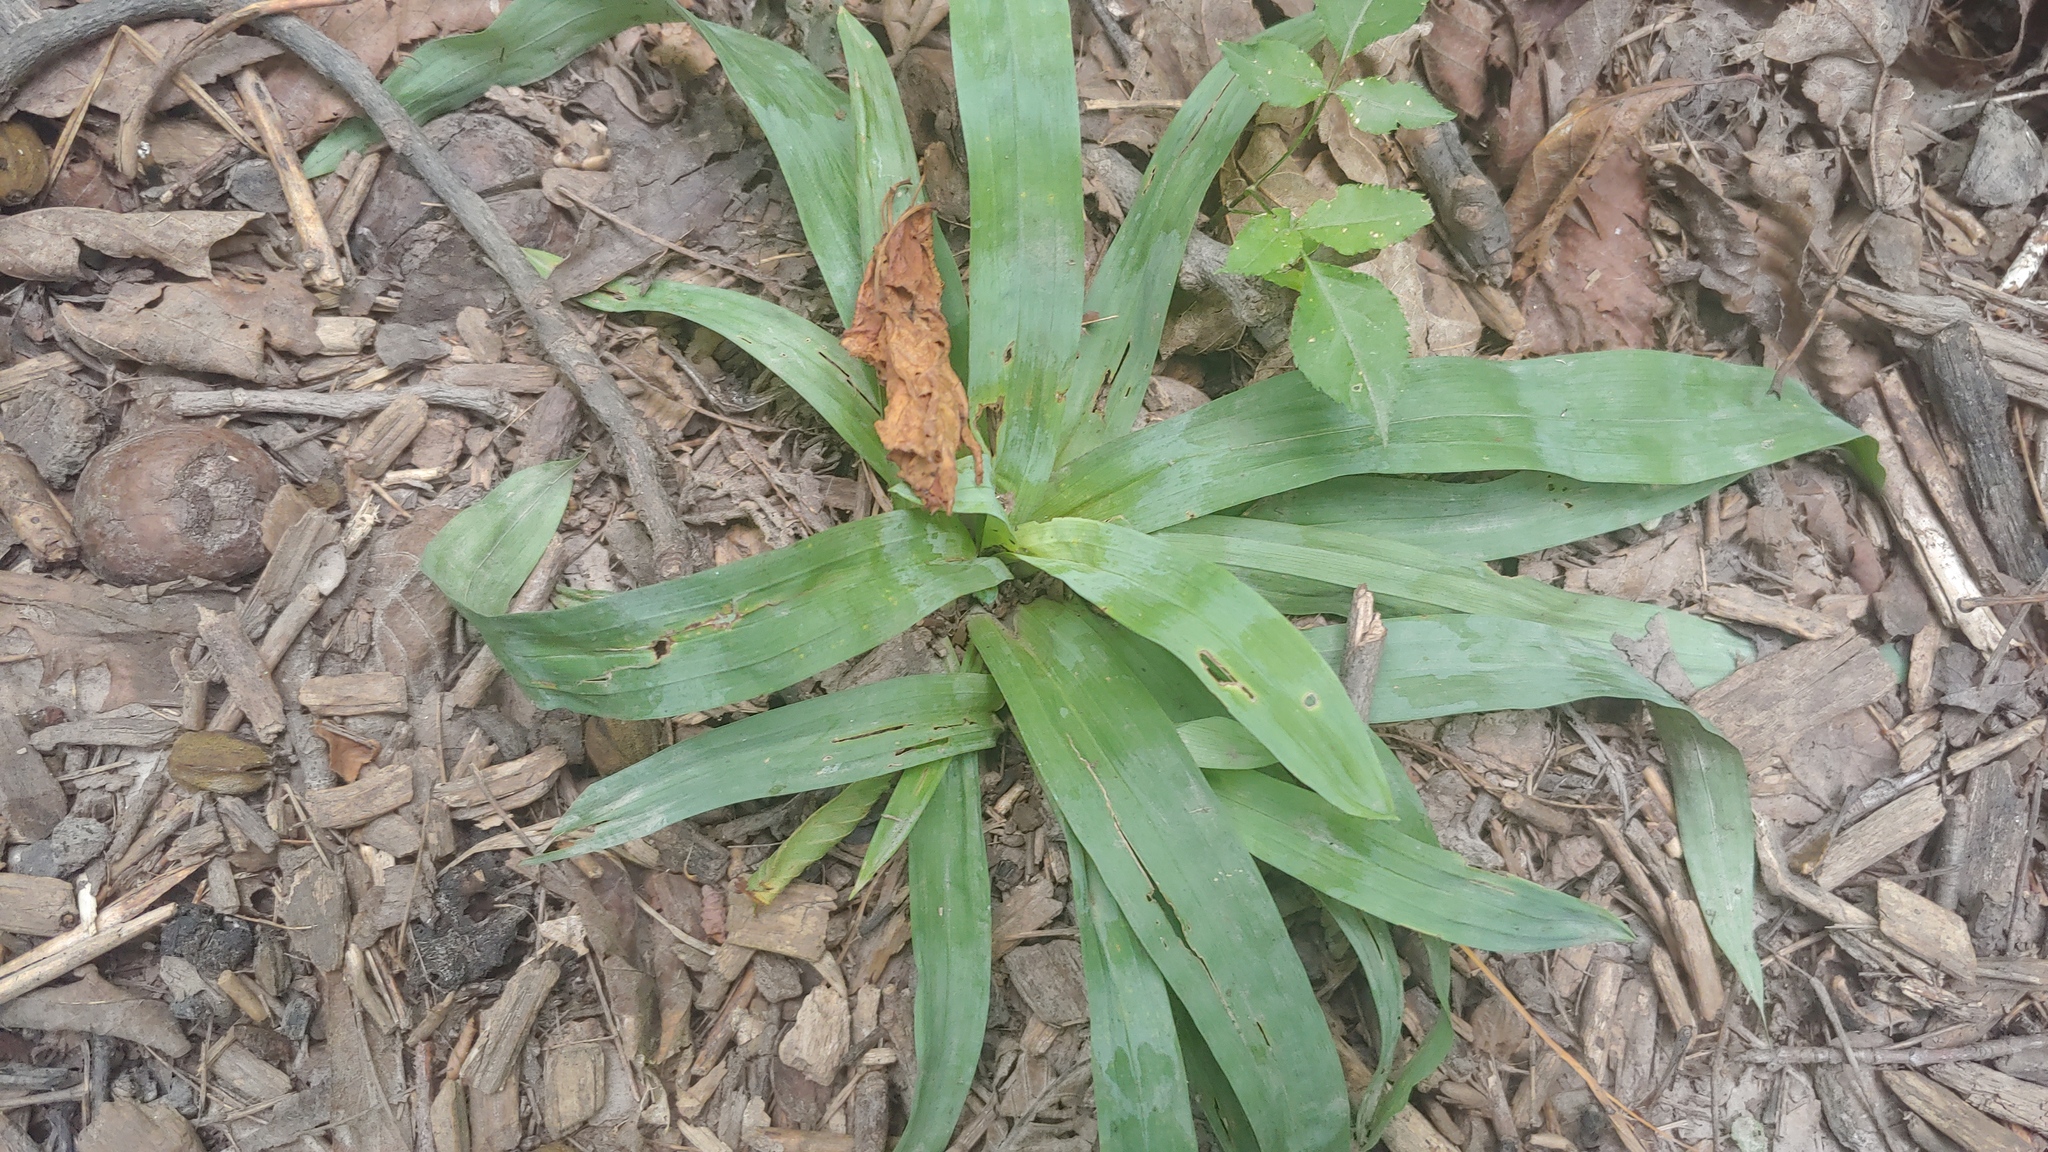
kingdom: Plantae
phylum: Tracheophyta
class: Liliopsida
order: Poales
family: Cyperaceae
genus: Carex
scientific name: Carex platyphylla
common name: Broad-leaved sedge
